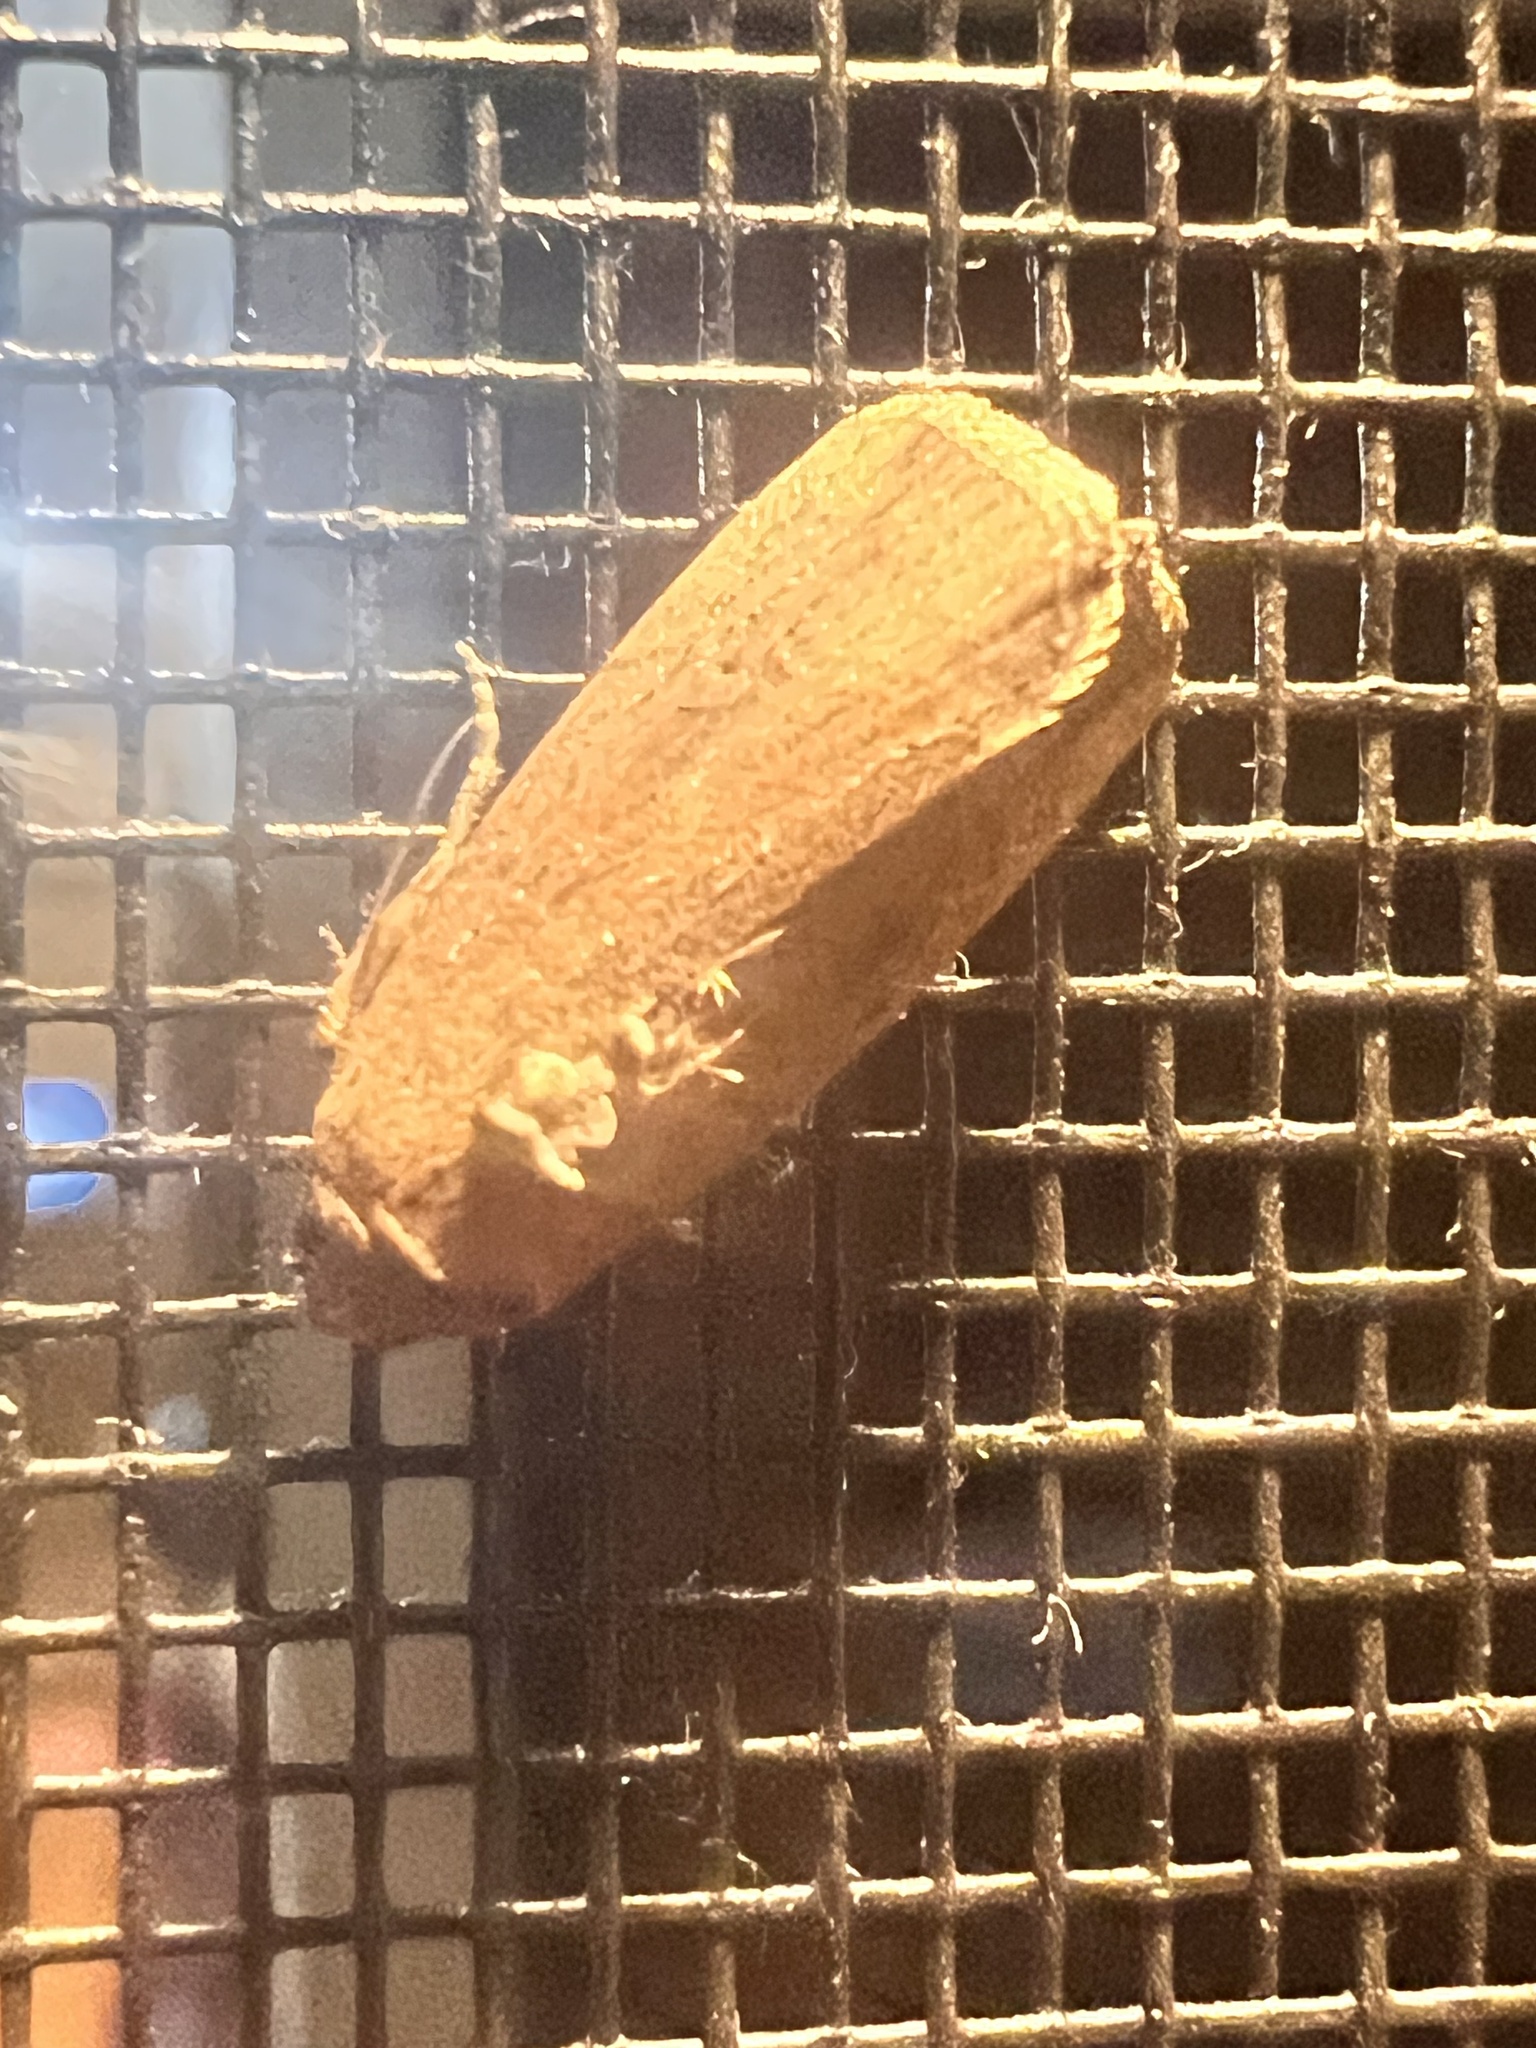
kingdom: Animalia
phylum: Arthropoda
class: Insecta
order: Lepidoptera
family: Noctuidae
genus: Elaphria
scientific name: Elaphria nucicolora
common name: Sugarcane midget moth
